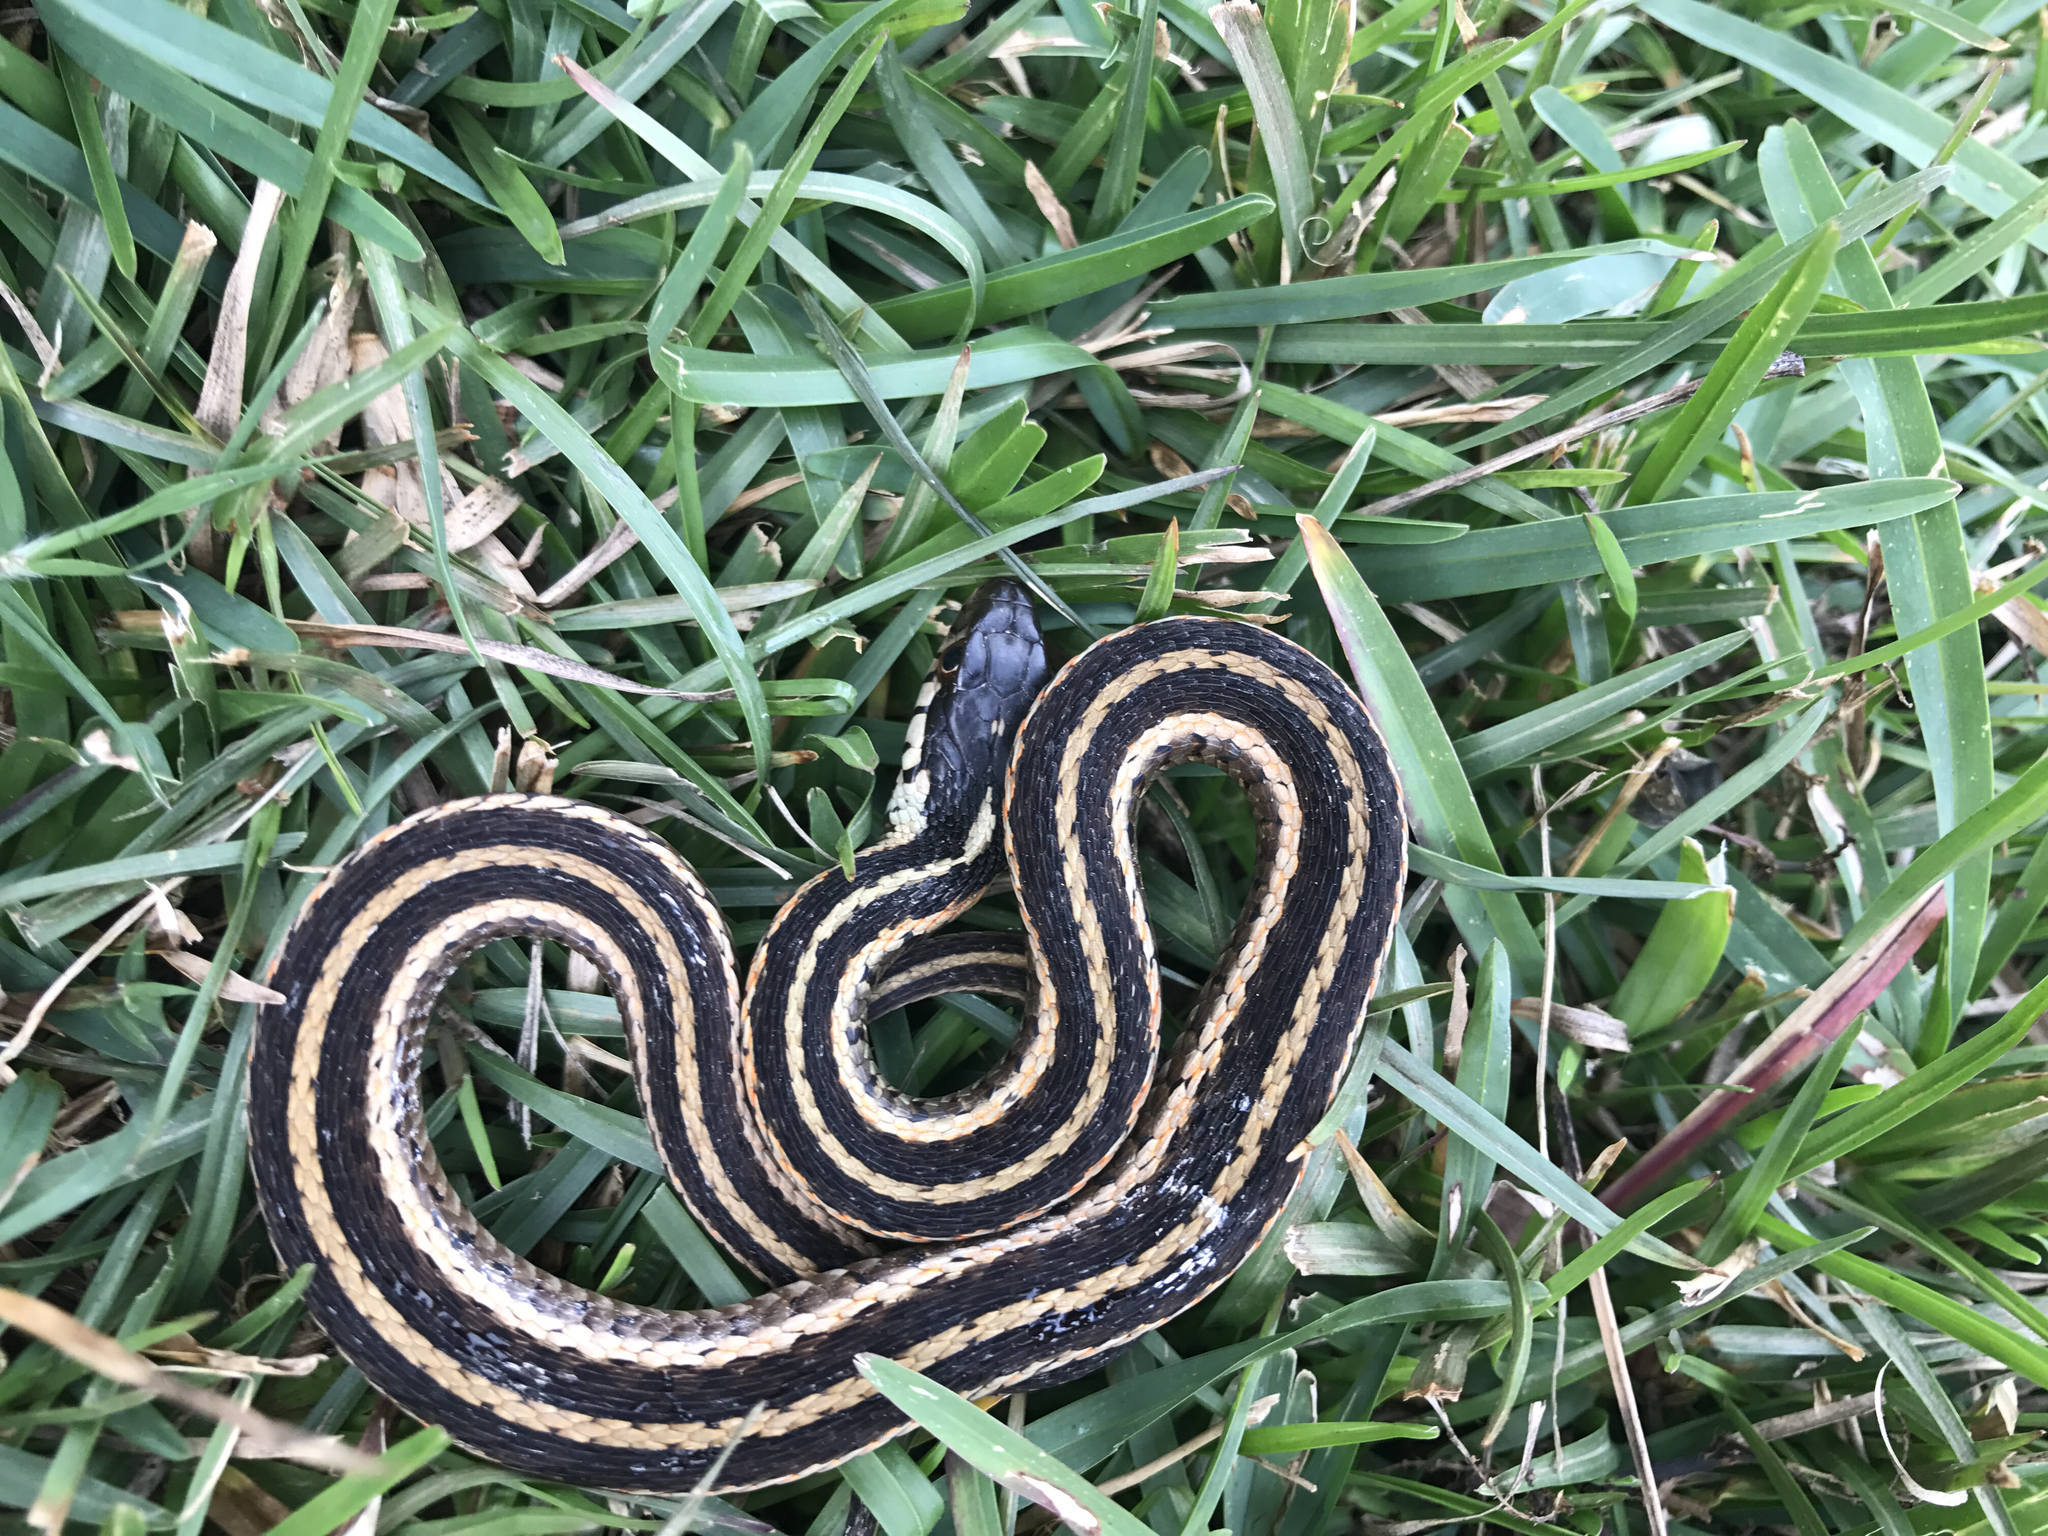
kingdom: Animalia
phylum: Chordata
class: Squamata
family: Colubridae
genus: Thamnophis
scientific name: Thamnophis sirtalis
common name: Common garter snake
